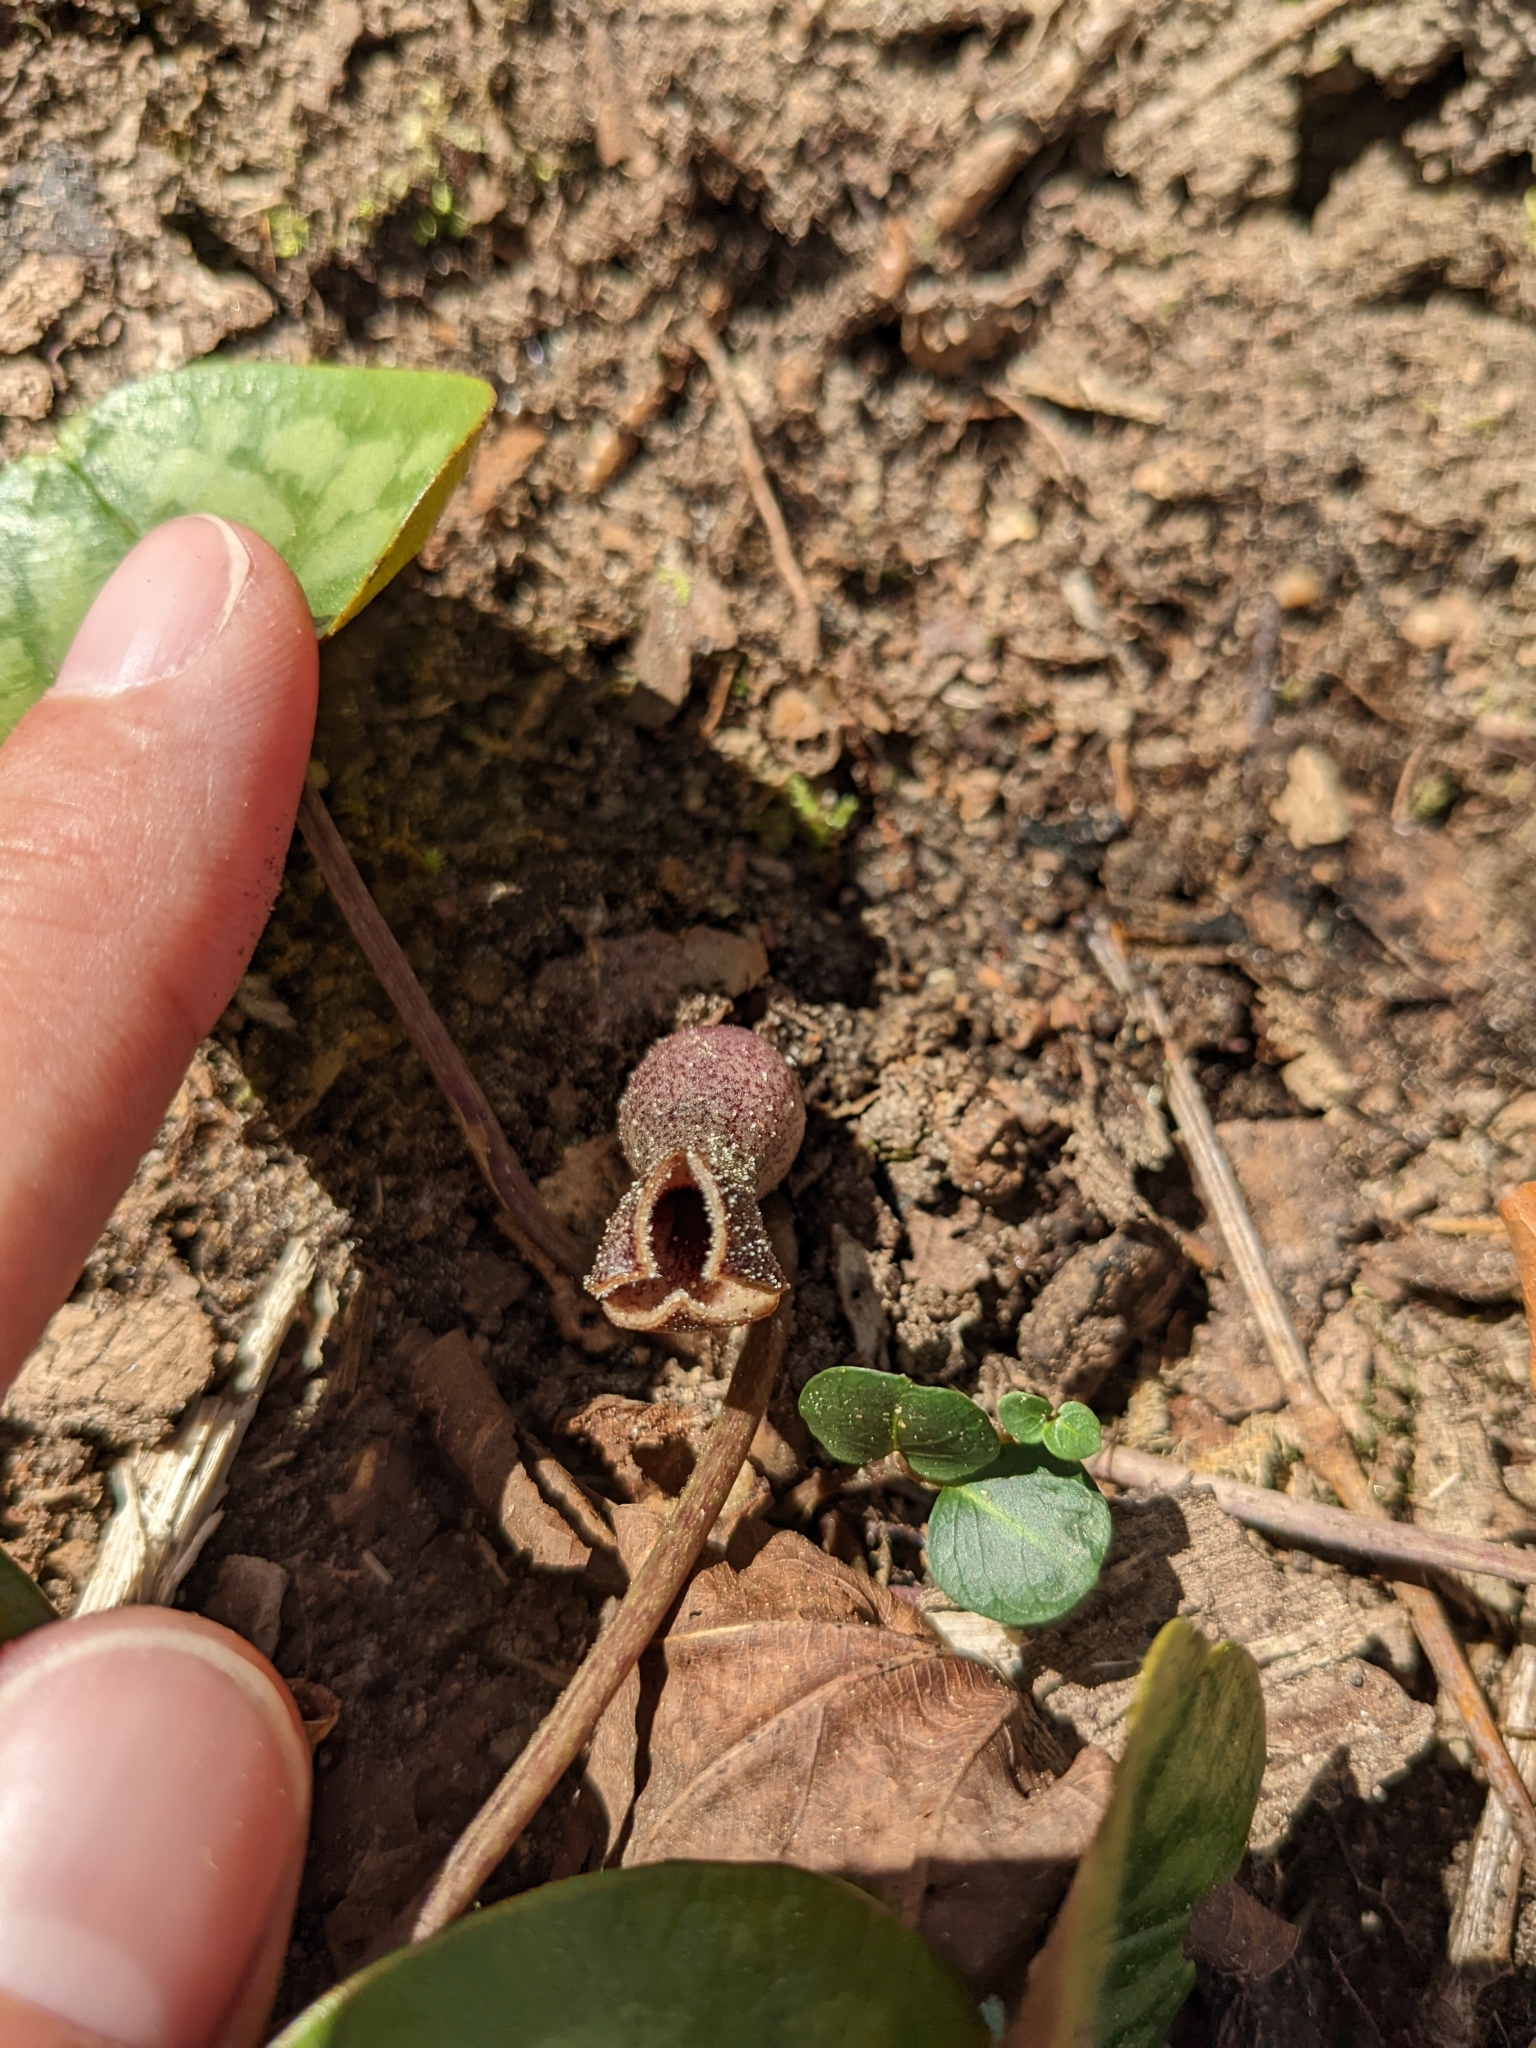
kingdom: Plantae
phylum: Tracheophyta
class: Magnoliopsida
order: Piperales
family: Aristolochiaceae
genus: Hexastylis
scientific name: Hexastylis arifolia
